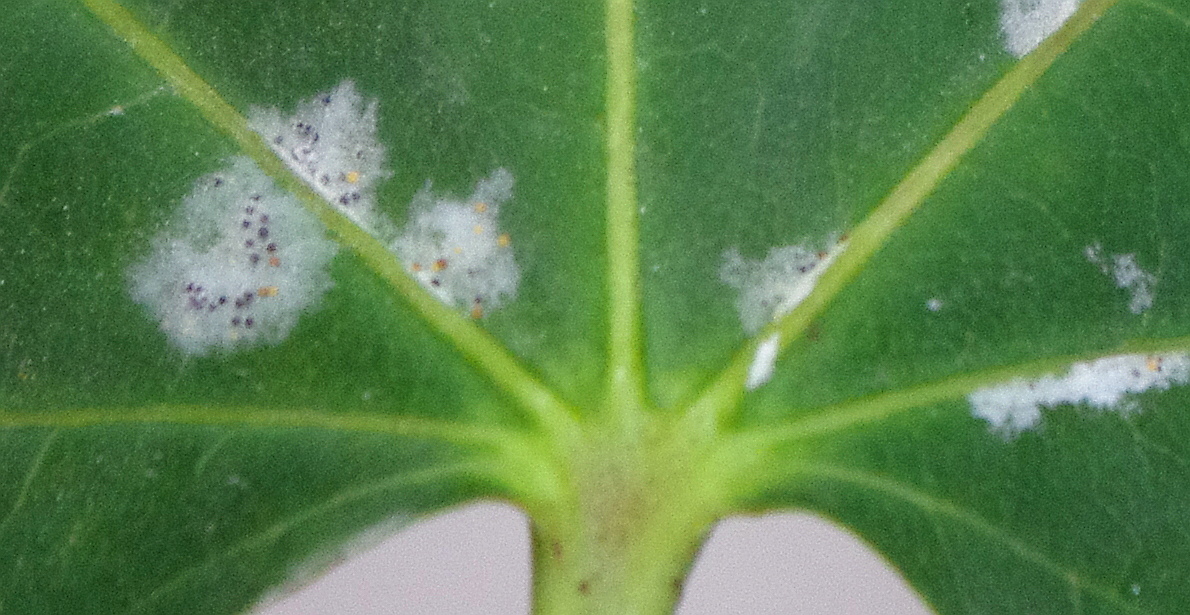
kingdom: Fungi
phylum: Ascomycota
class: Leotiomycetes
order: Helotiales
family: Erysiphaceae
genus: Sawadaea
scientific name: Sawadaea tulasnei
